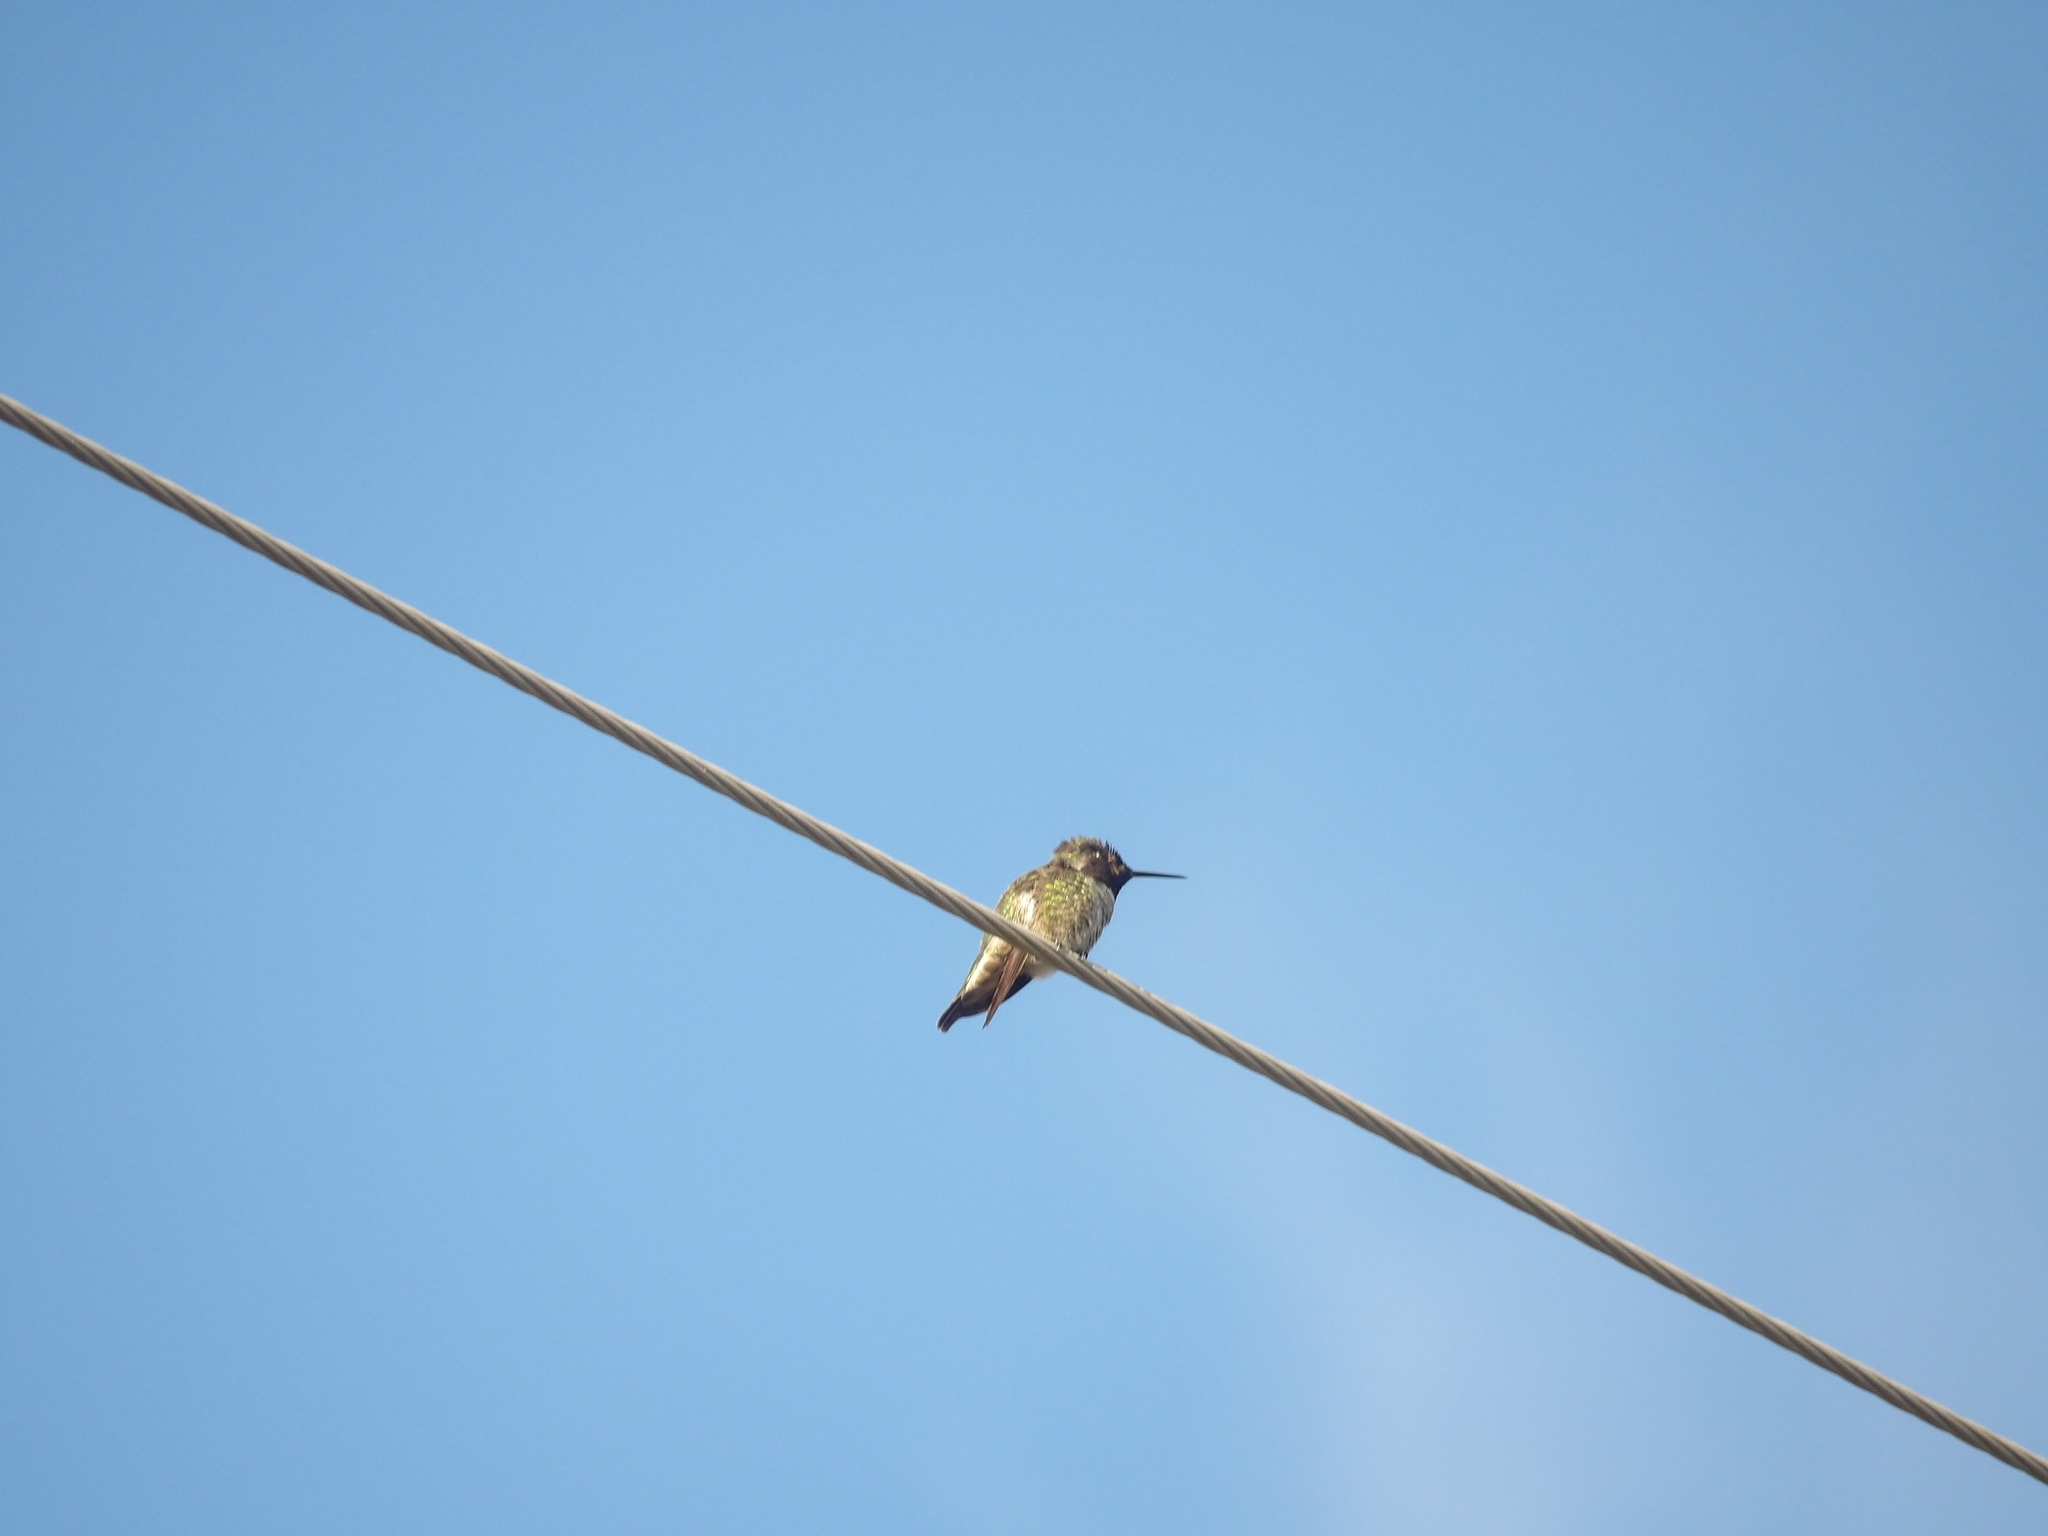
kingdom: Animalia
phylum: Chordata
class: Aves
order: Apodiformes
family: Trochilidae
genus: Calypte
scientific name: Calypte anna
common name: Anna's hummingbird
